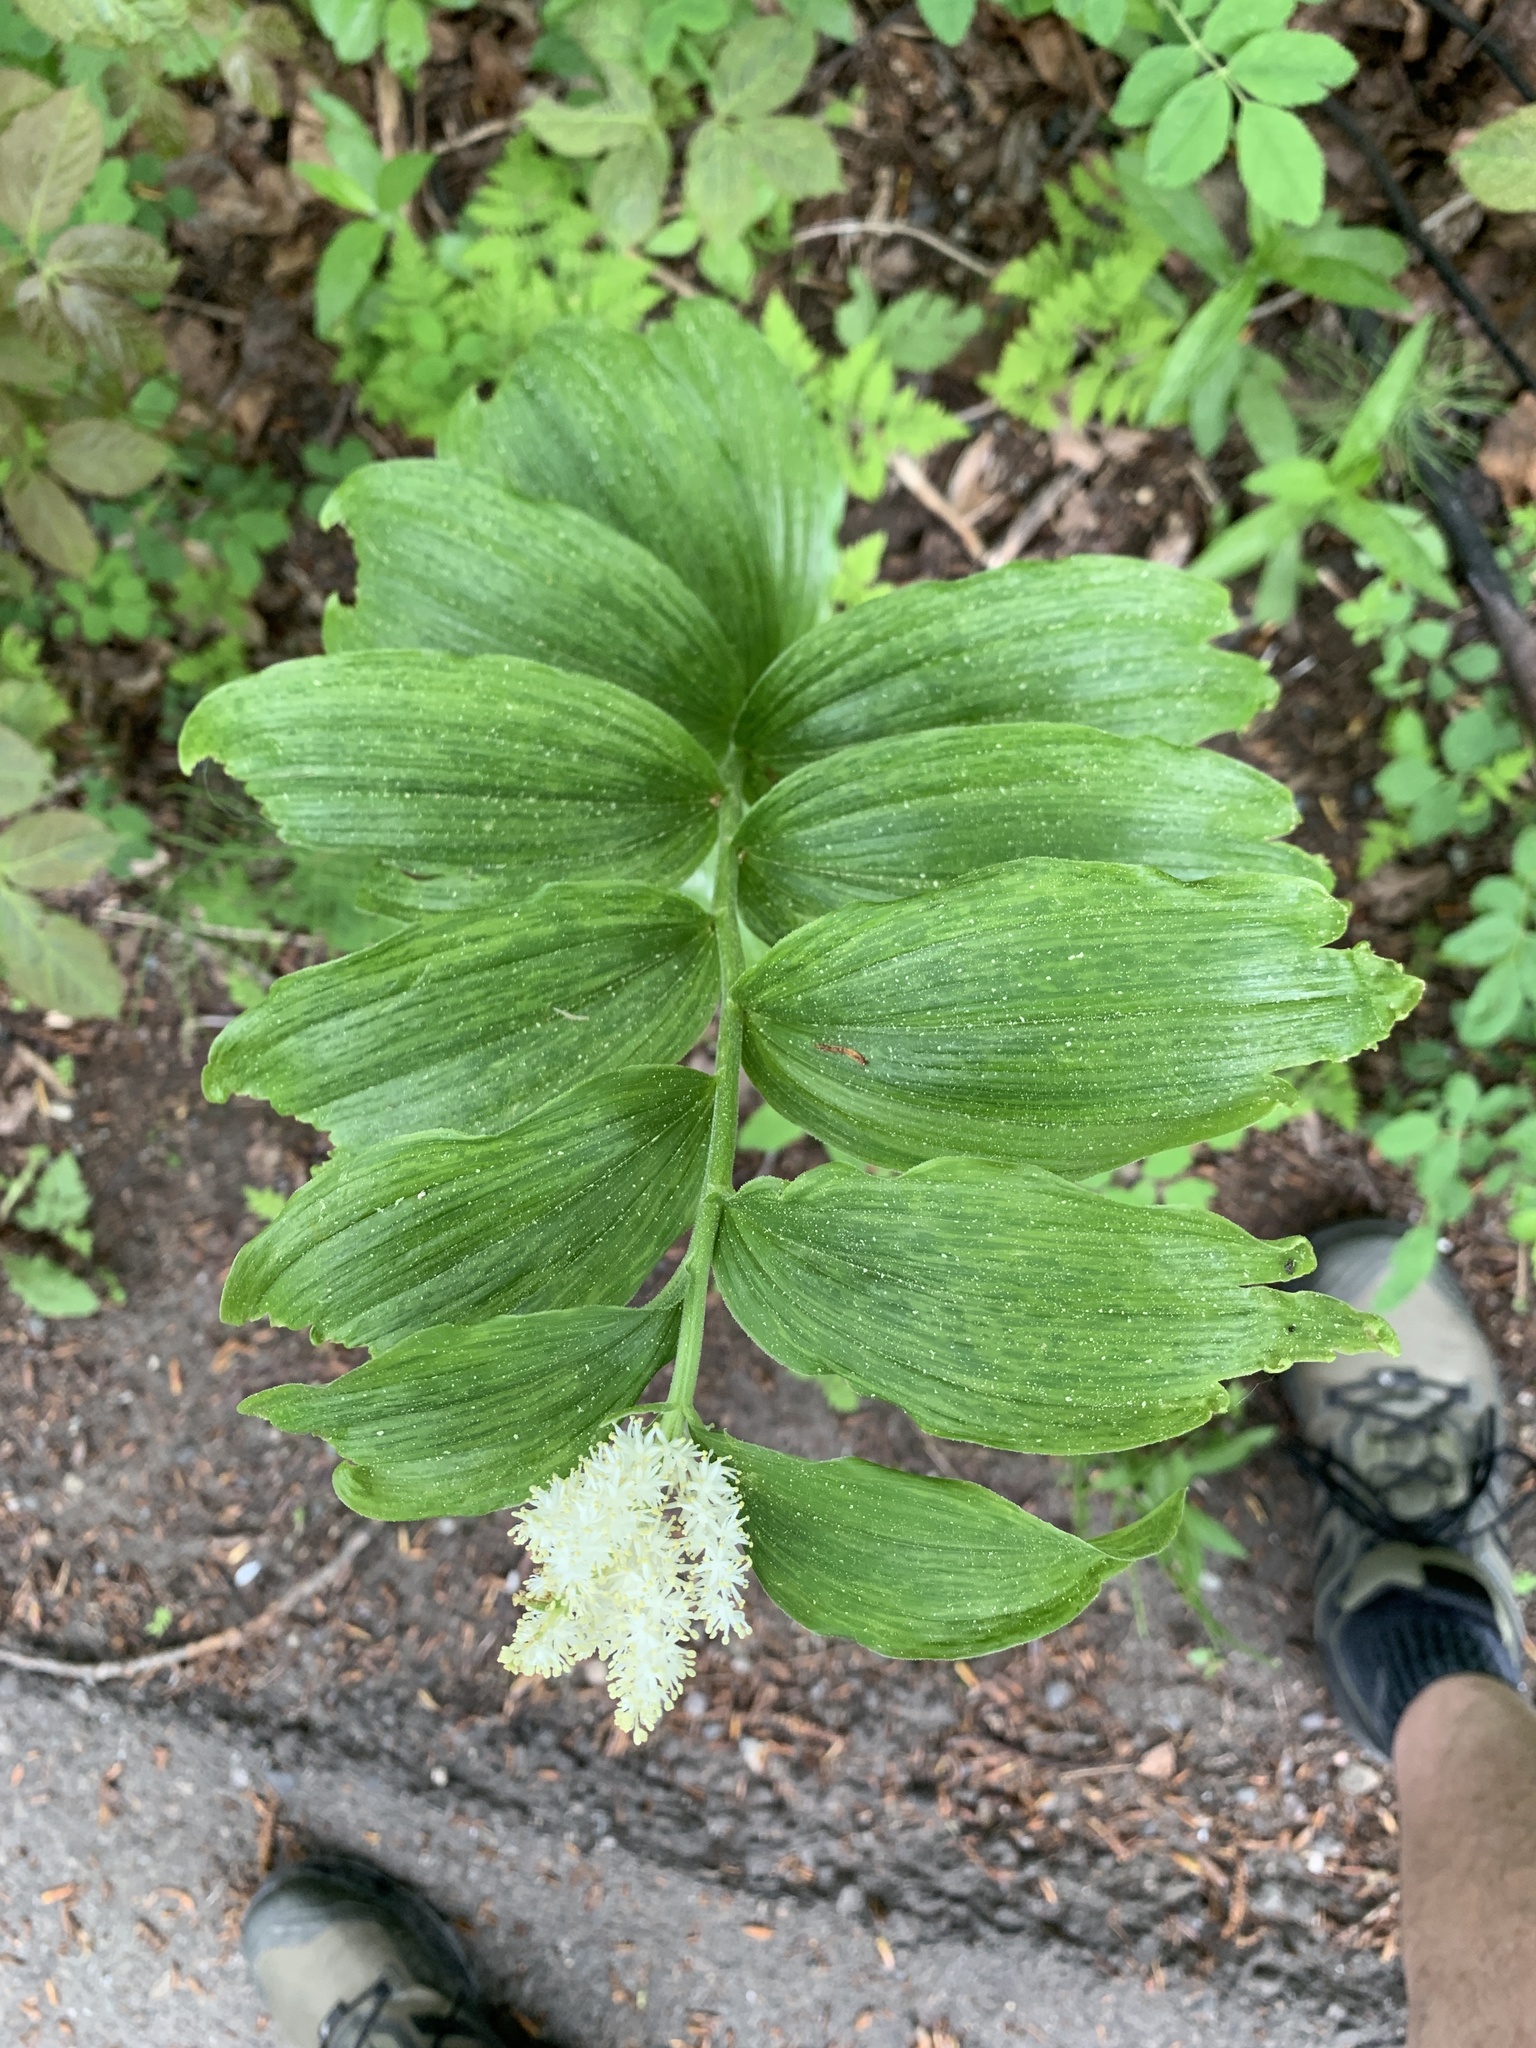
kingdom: Plantae
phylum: Tracheophyta
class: Liliopsida
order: Asparagales
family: Asparagaceae
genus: Maianthemum
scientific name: Maianthemum racemosum
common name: False spikenard
